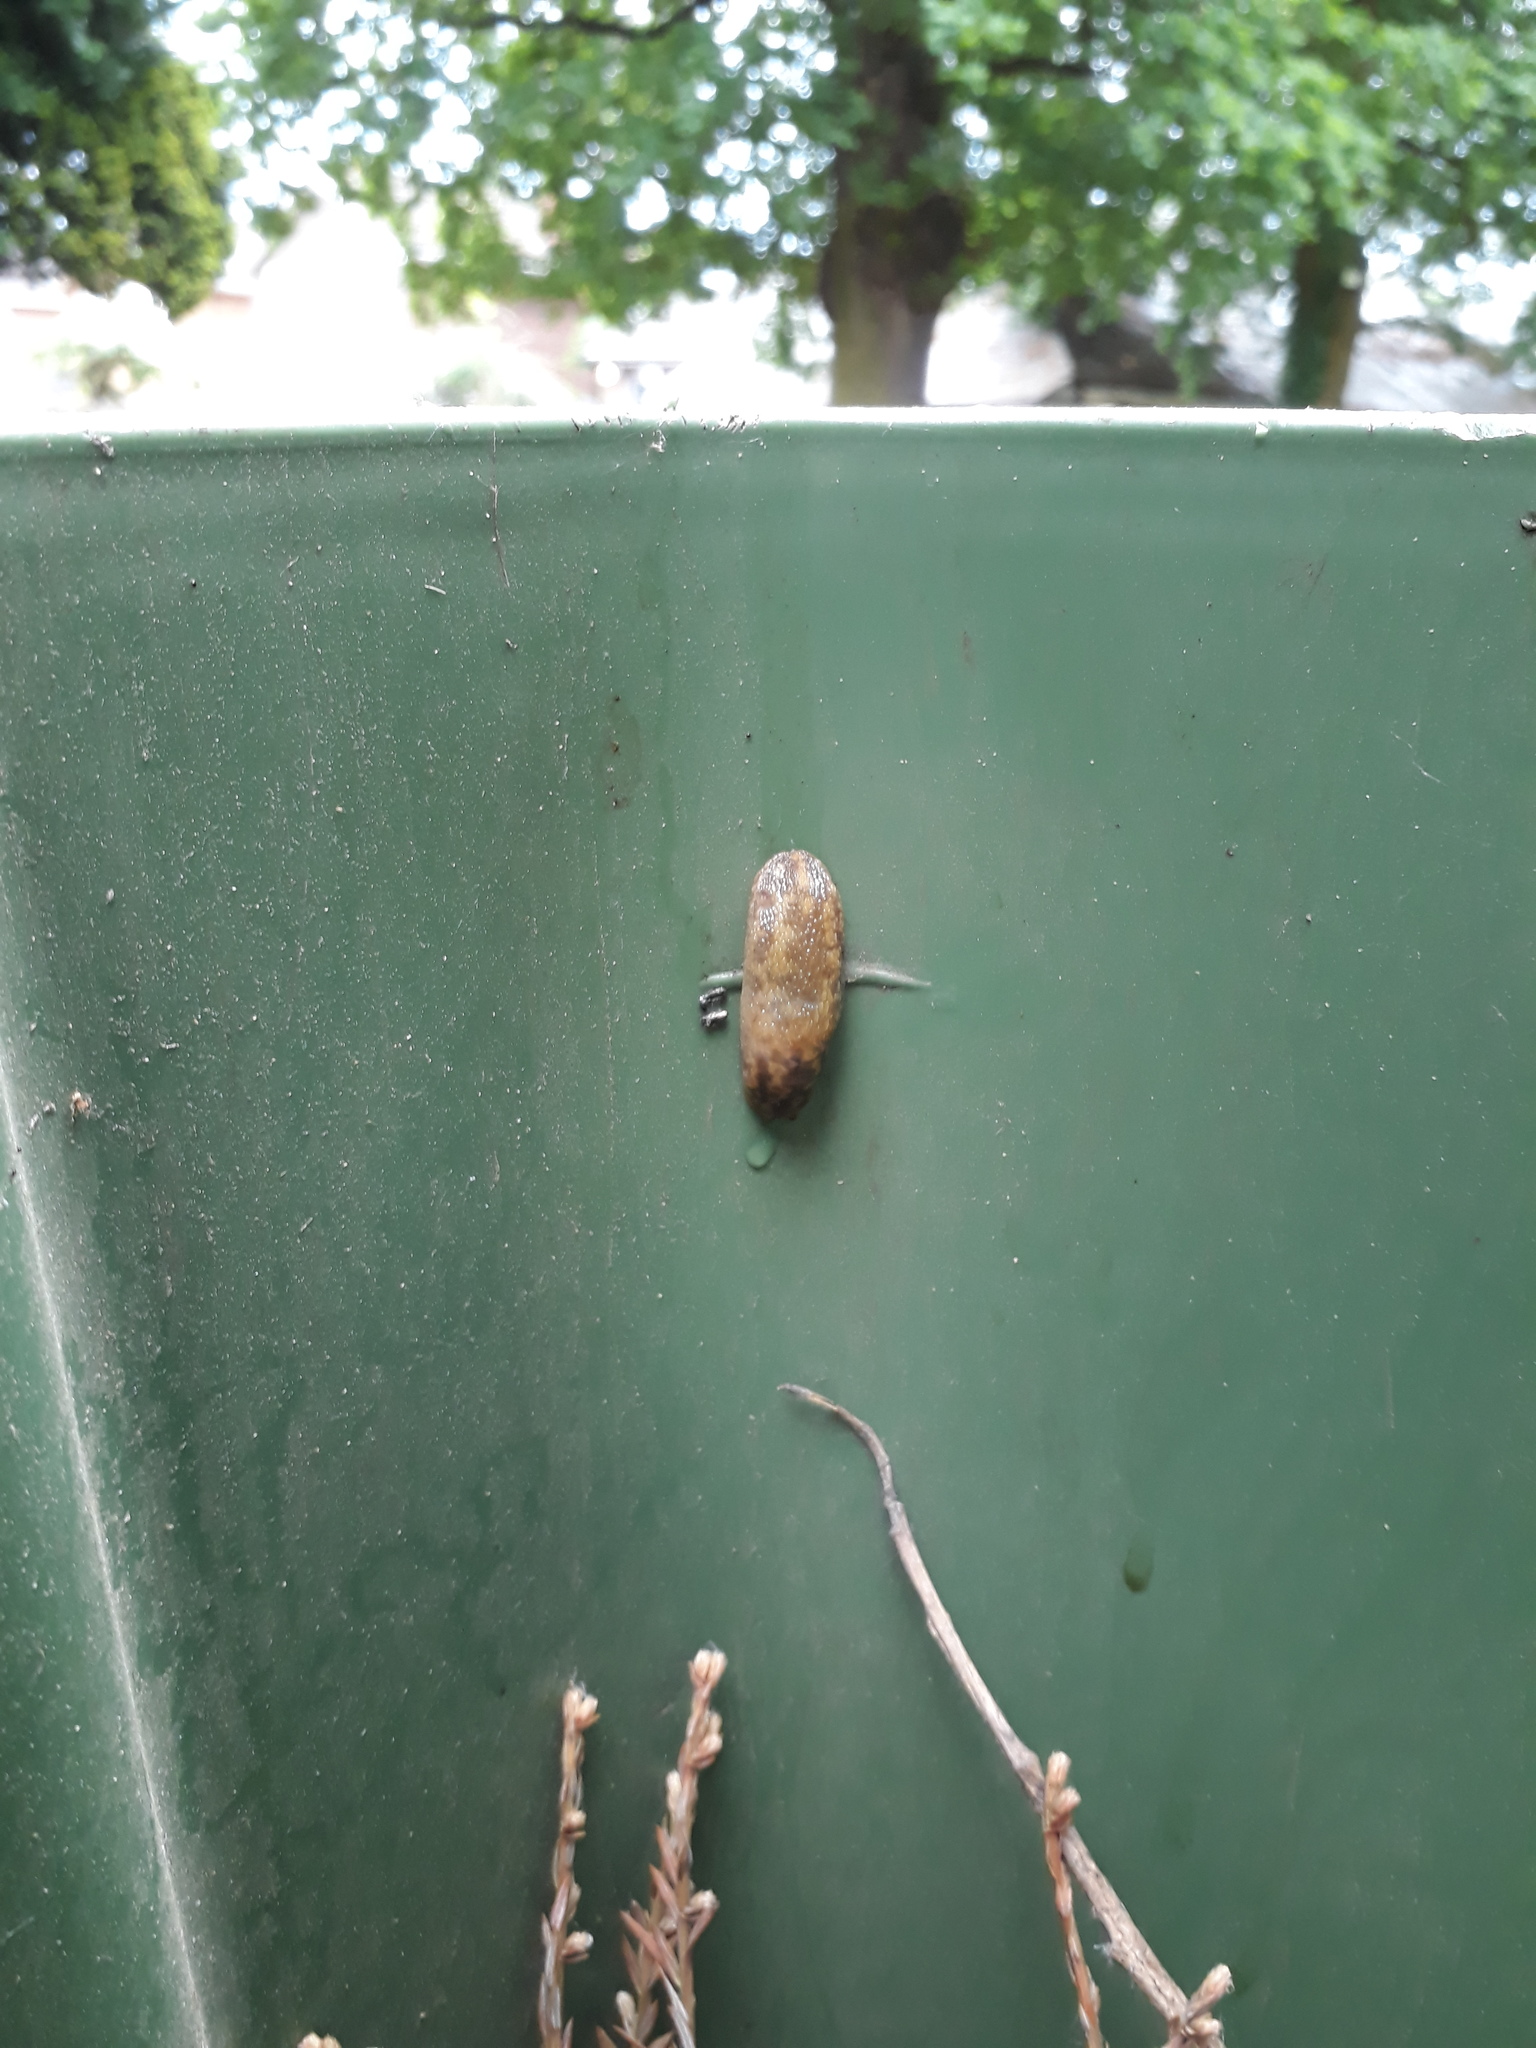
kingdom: Animalia
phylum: Mollusca
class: Gastropoda
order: Stylommatophora
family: Limacidae
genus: Limacus
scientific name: Limacus maculatus
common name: Irish yellow slug
